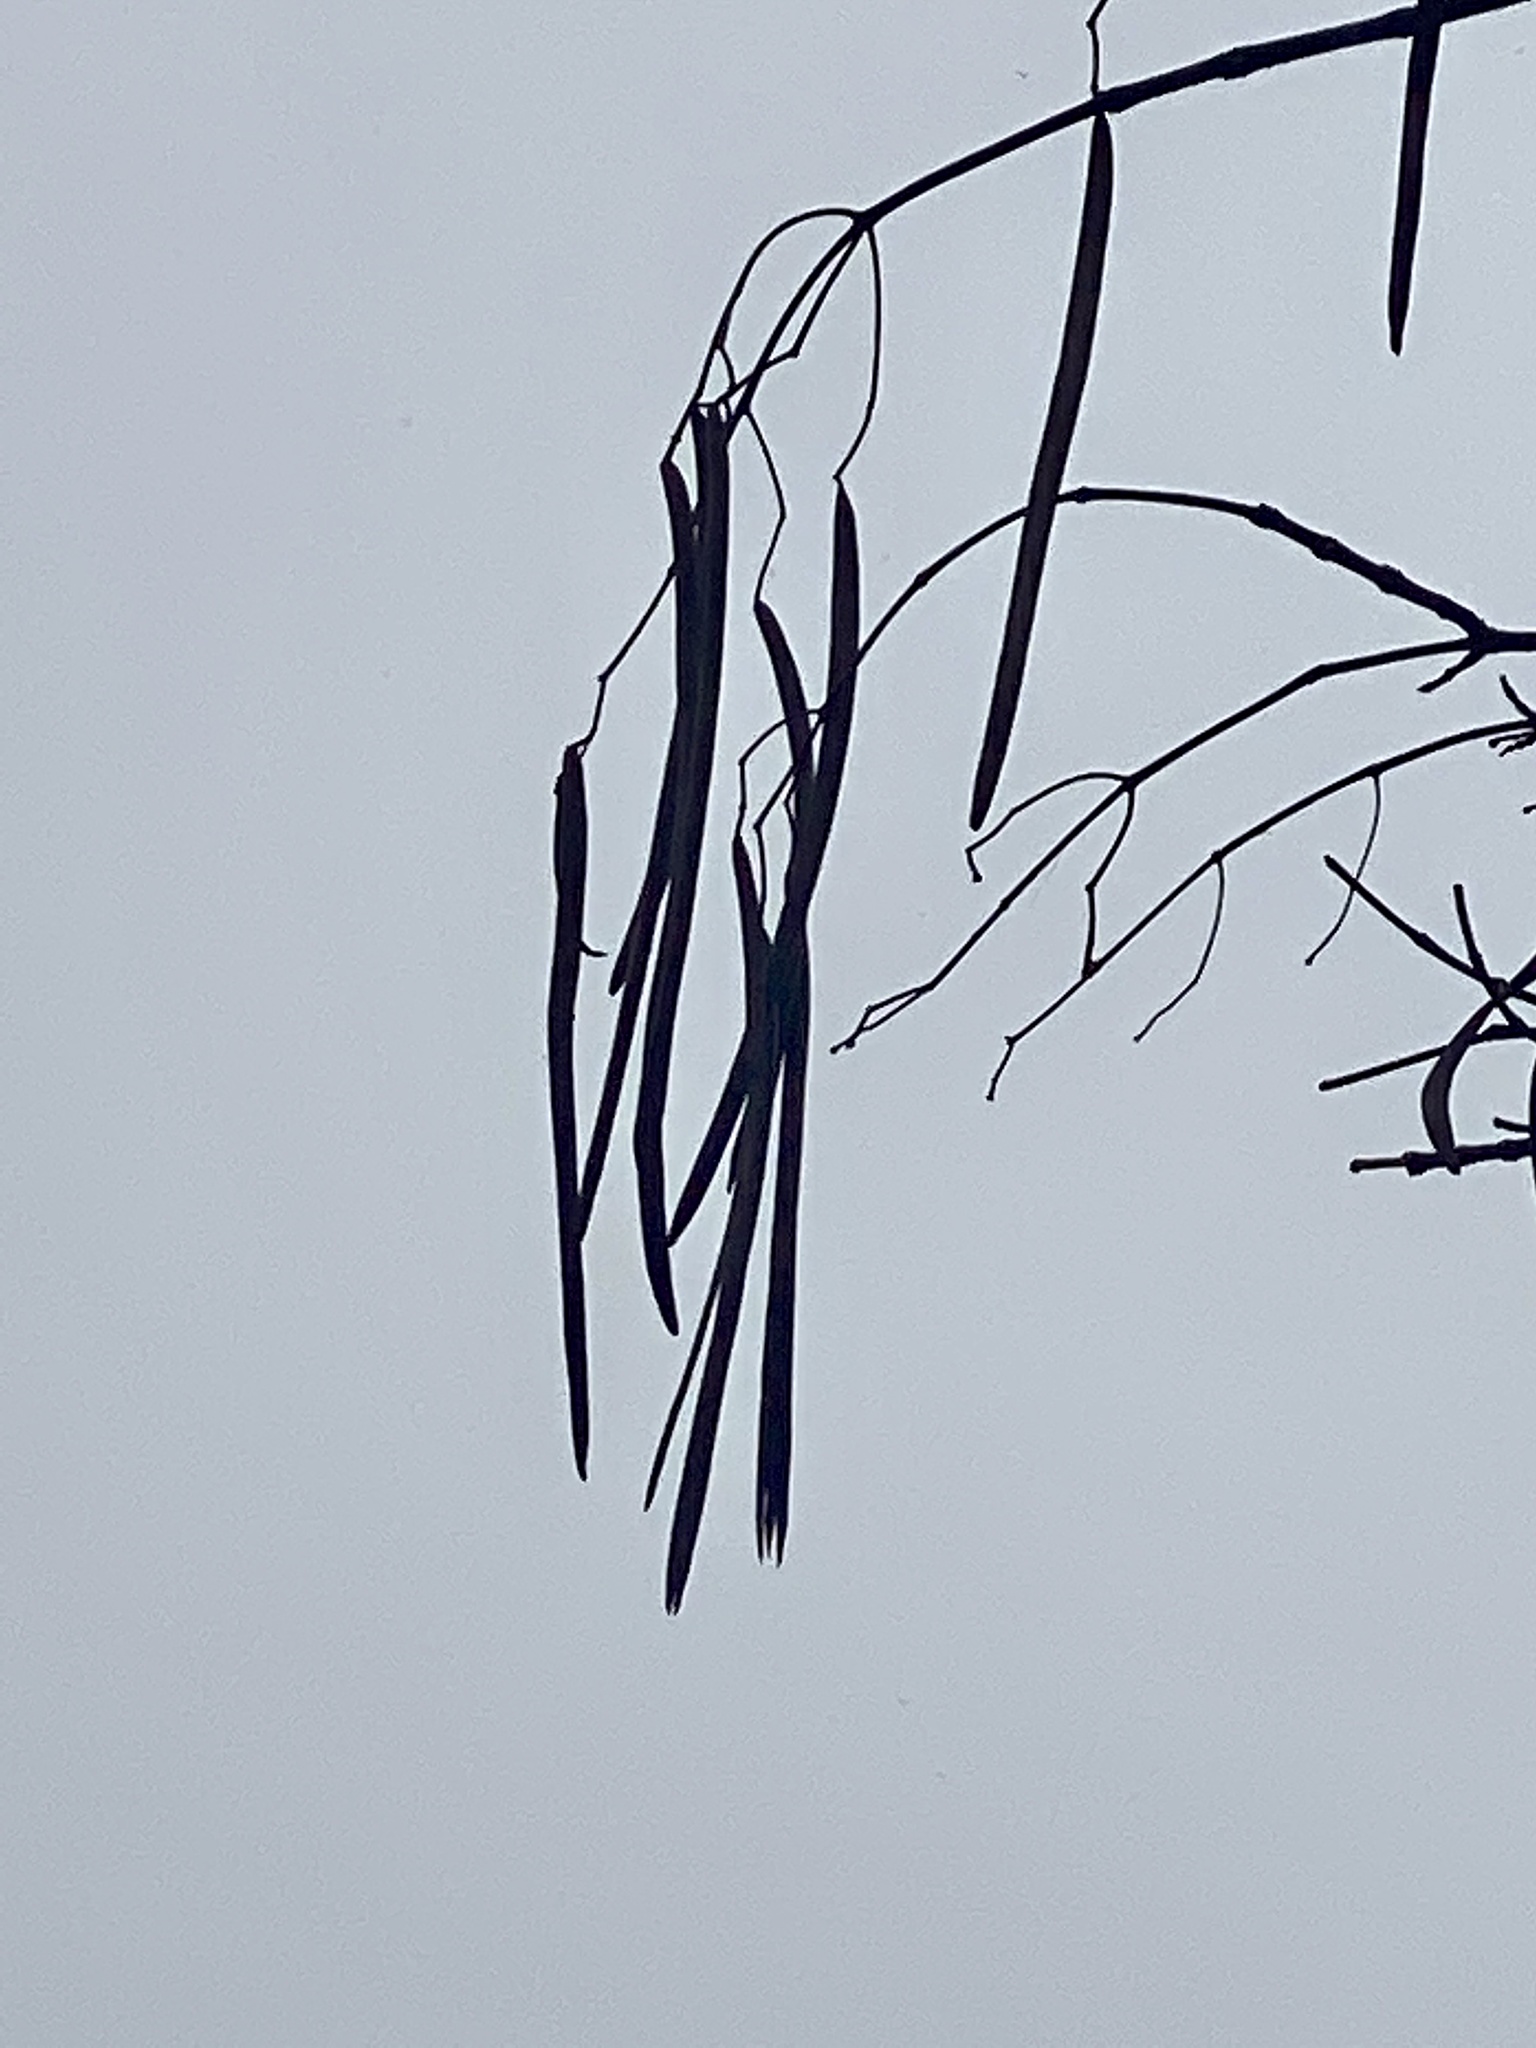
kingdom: Plantae
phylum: Tracheophyta
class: Magnoliopsida
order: Lamiales
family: Bignoniaceae
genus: Catalpa
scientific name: Catalpa
